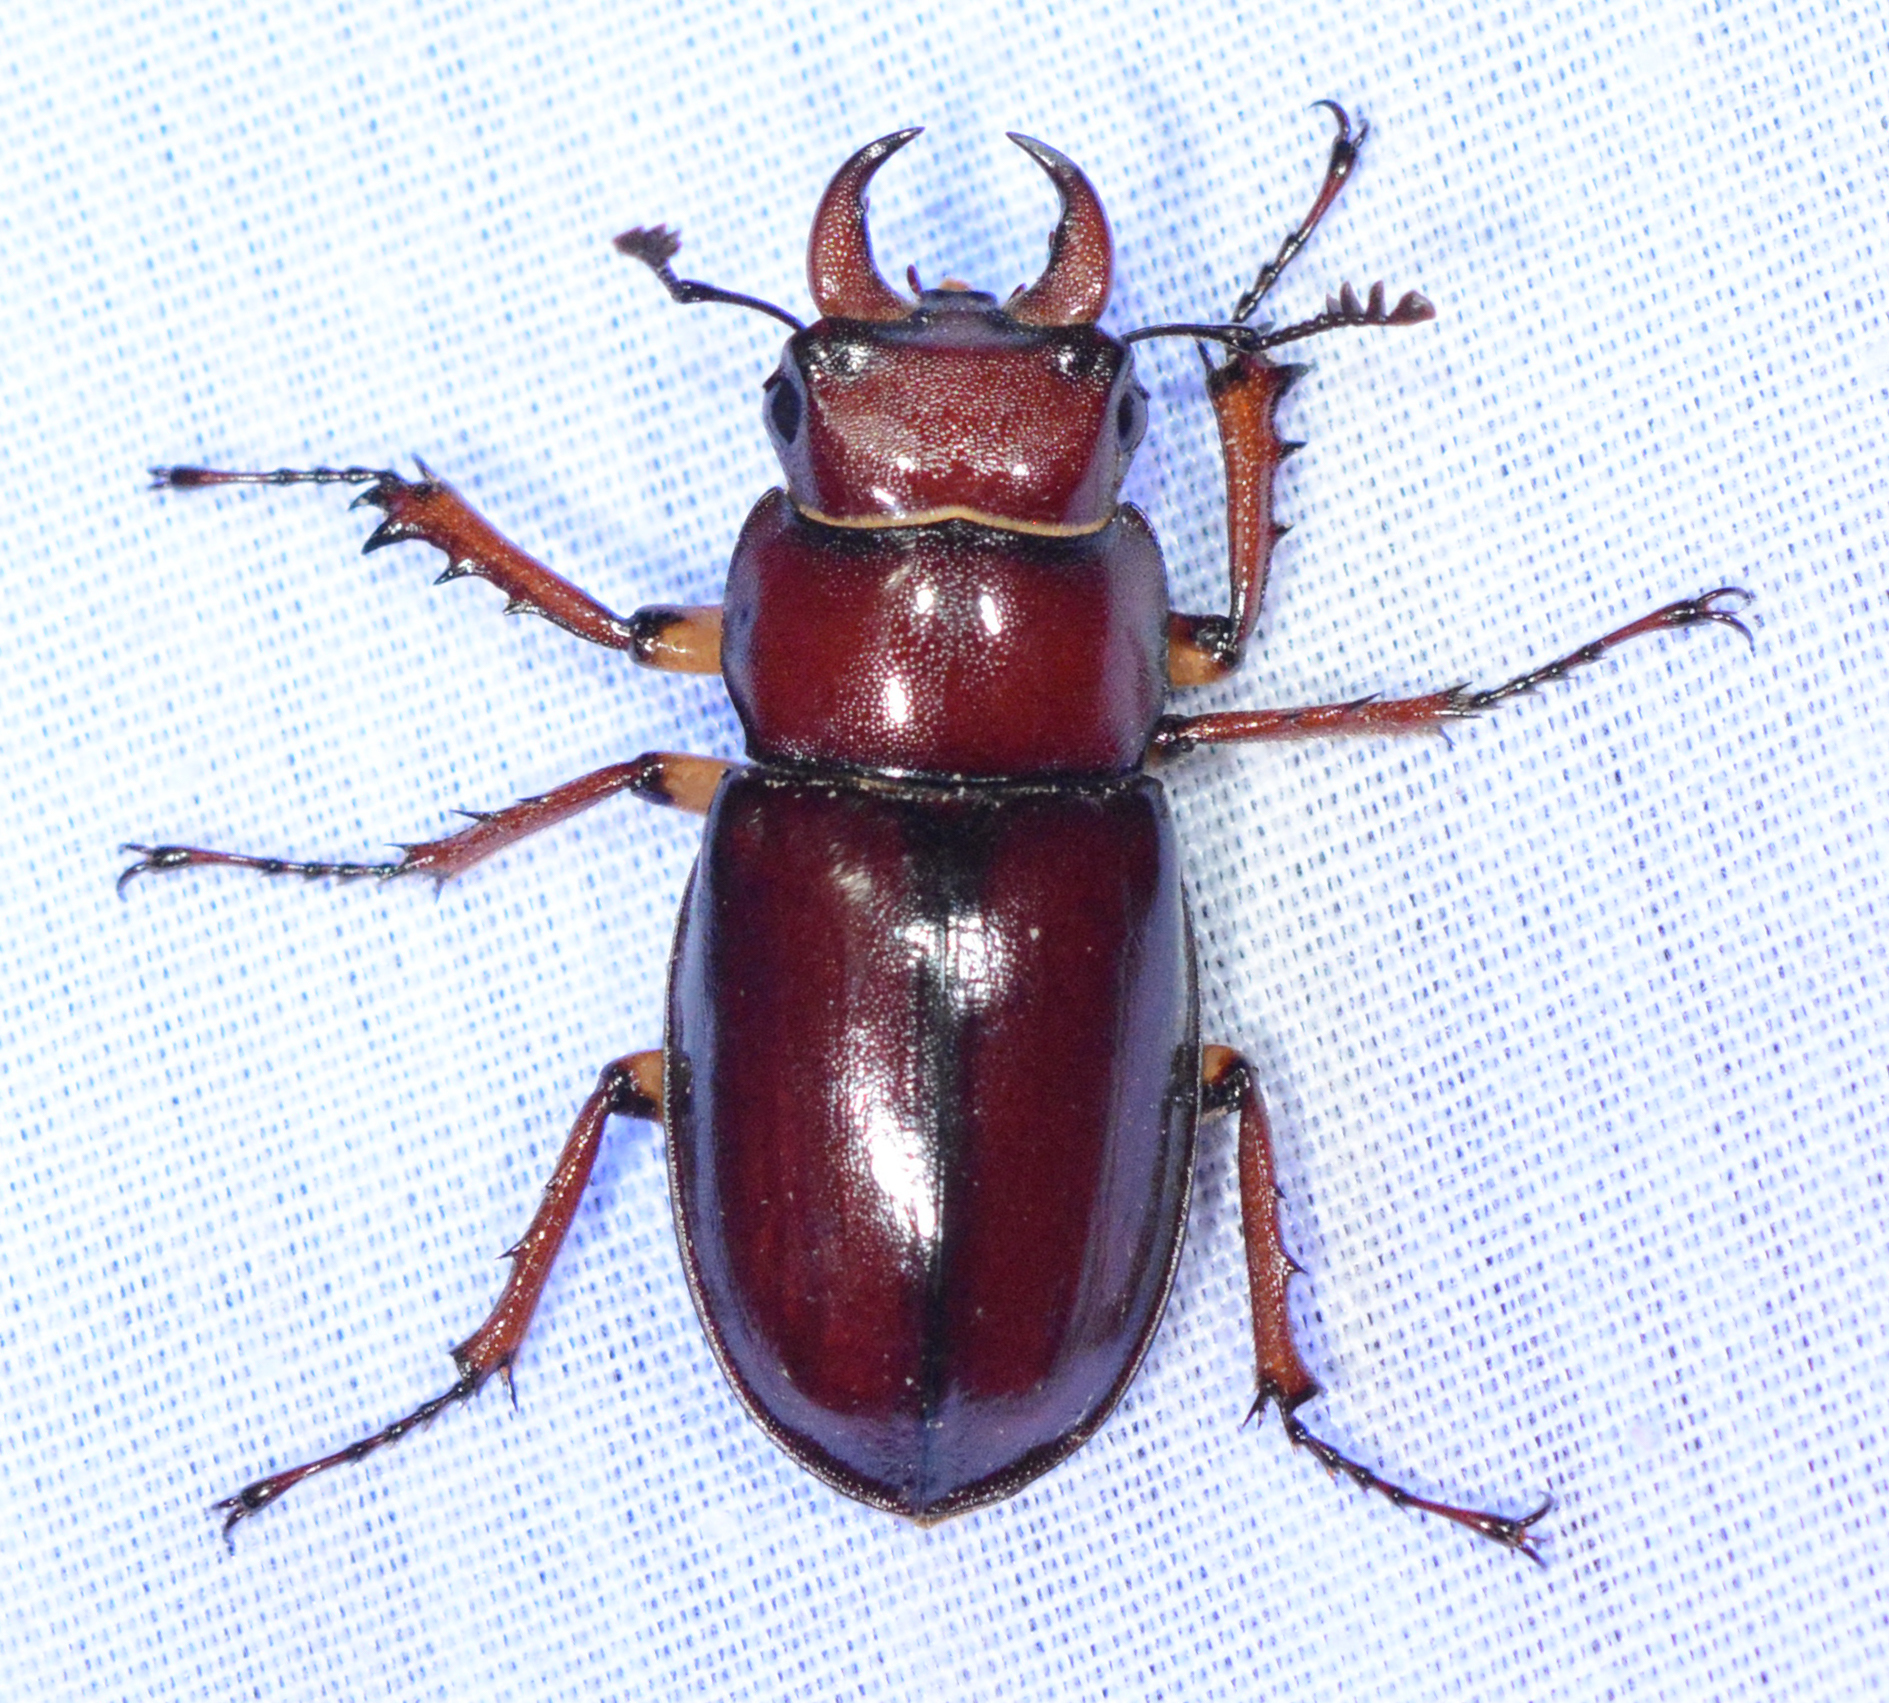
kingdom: Animalia
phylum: Arthropoda
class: Insecta
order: Coleoptera
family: Lucanidae
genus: Lucanus
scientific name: Lucanus capreolus
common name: Stag beetle
